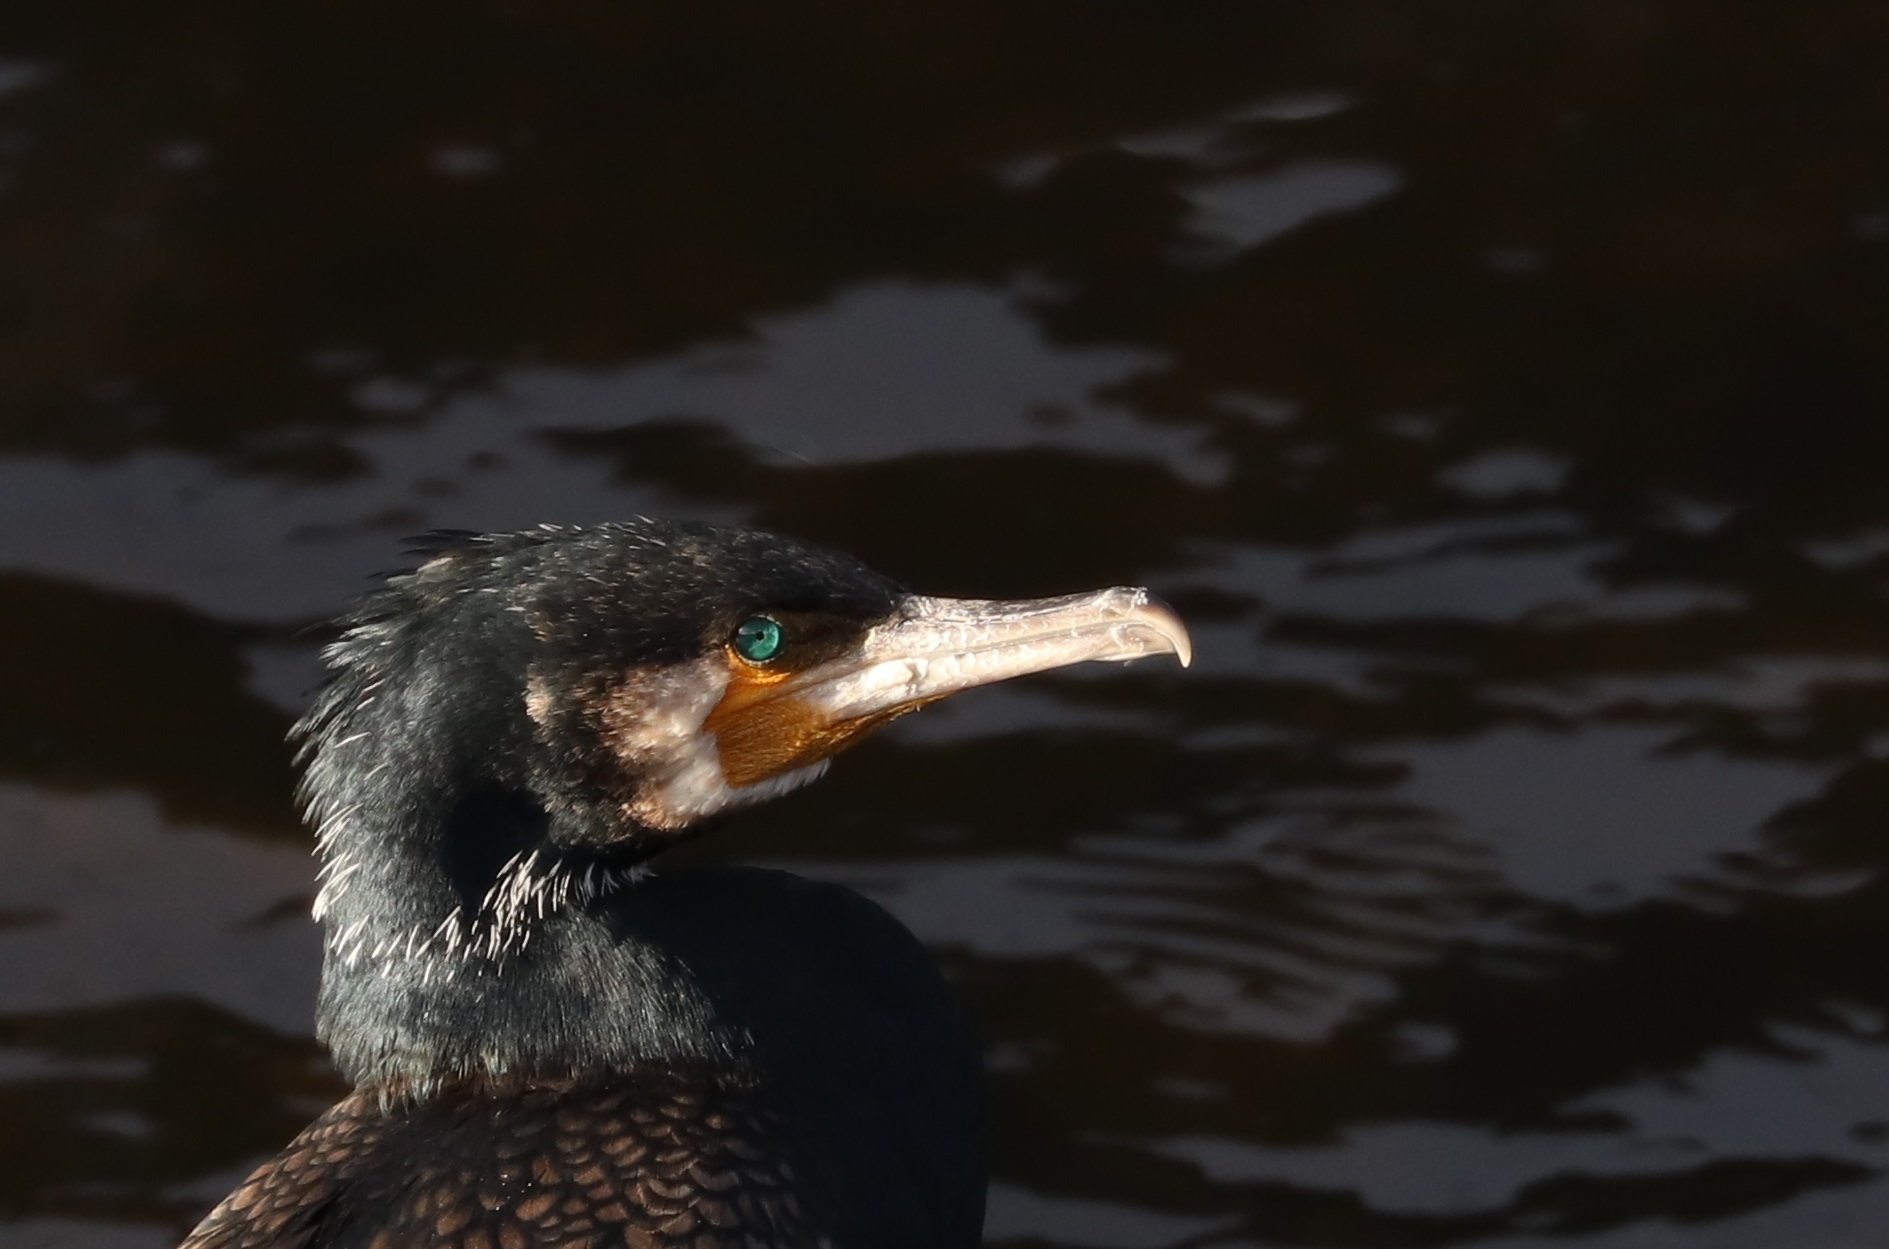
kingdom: Animalia
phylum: Chordata
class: Aves
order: Suliformes
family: Phalacrocoracidae
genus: Phalacrocorax
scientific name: Phalacrocorax carbo
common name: Great cormorant
